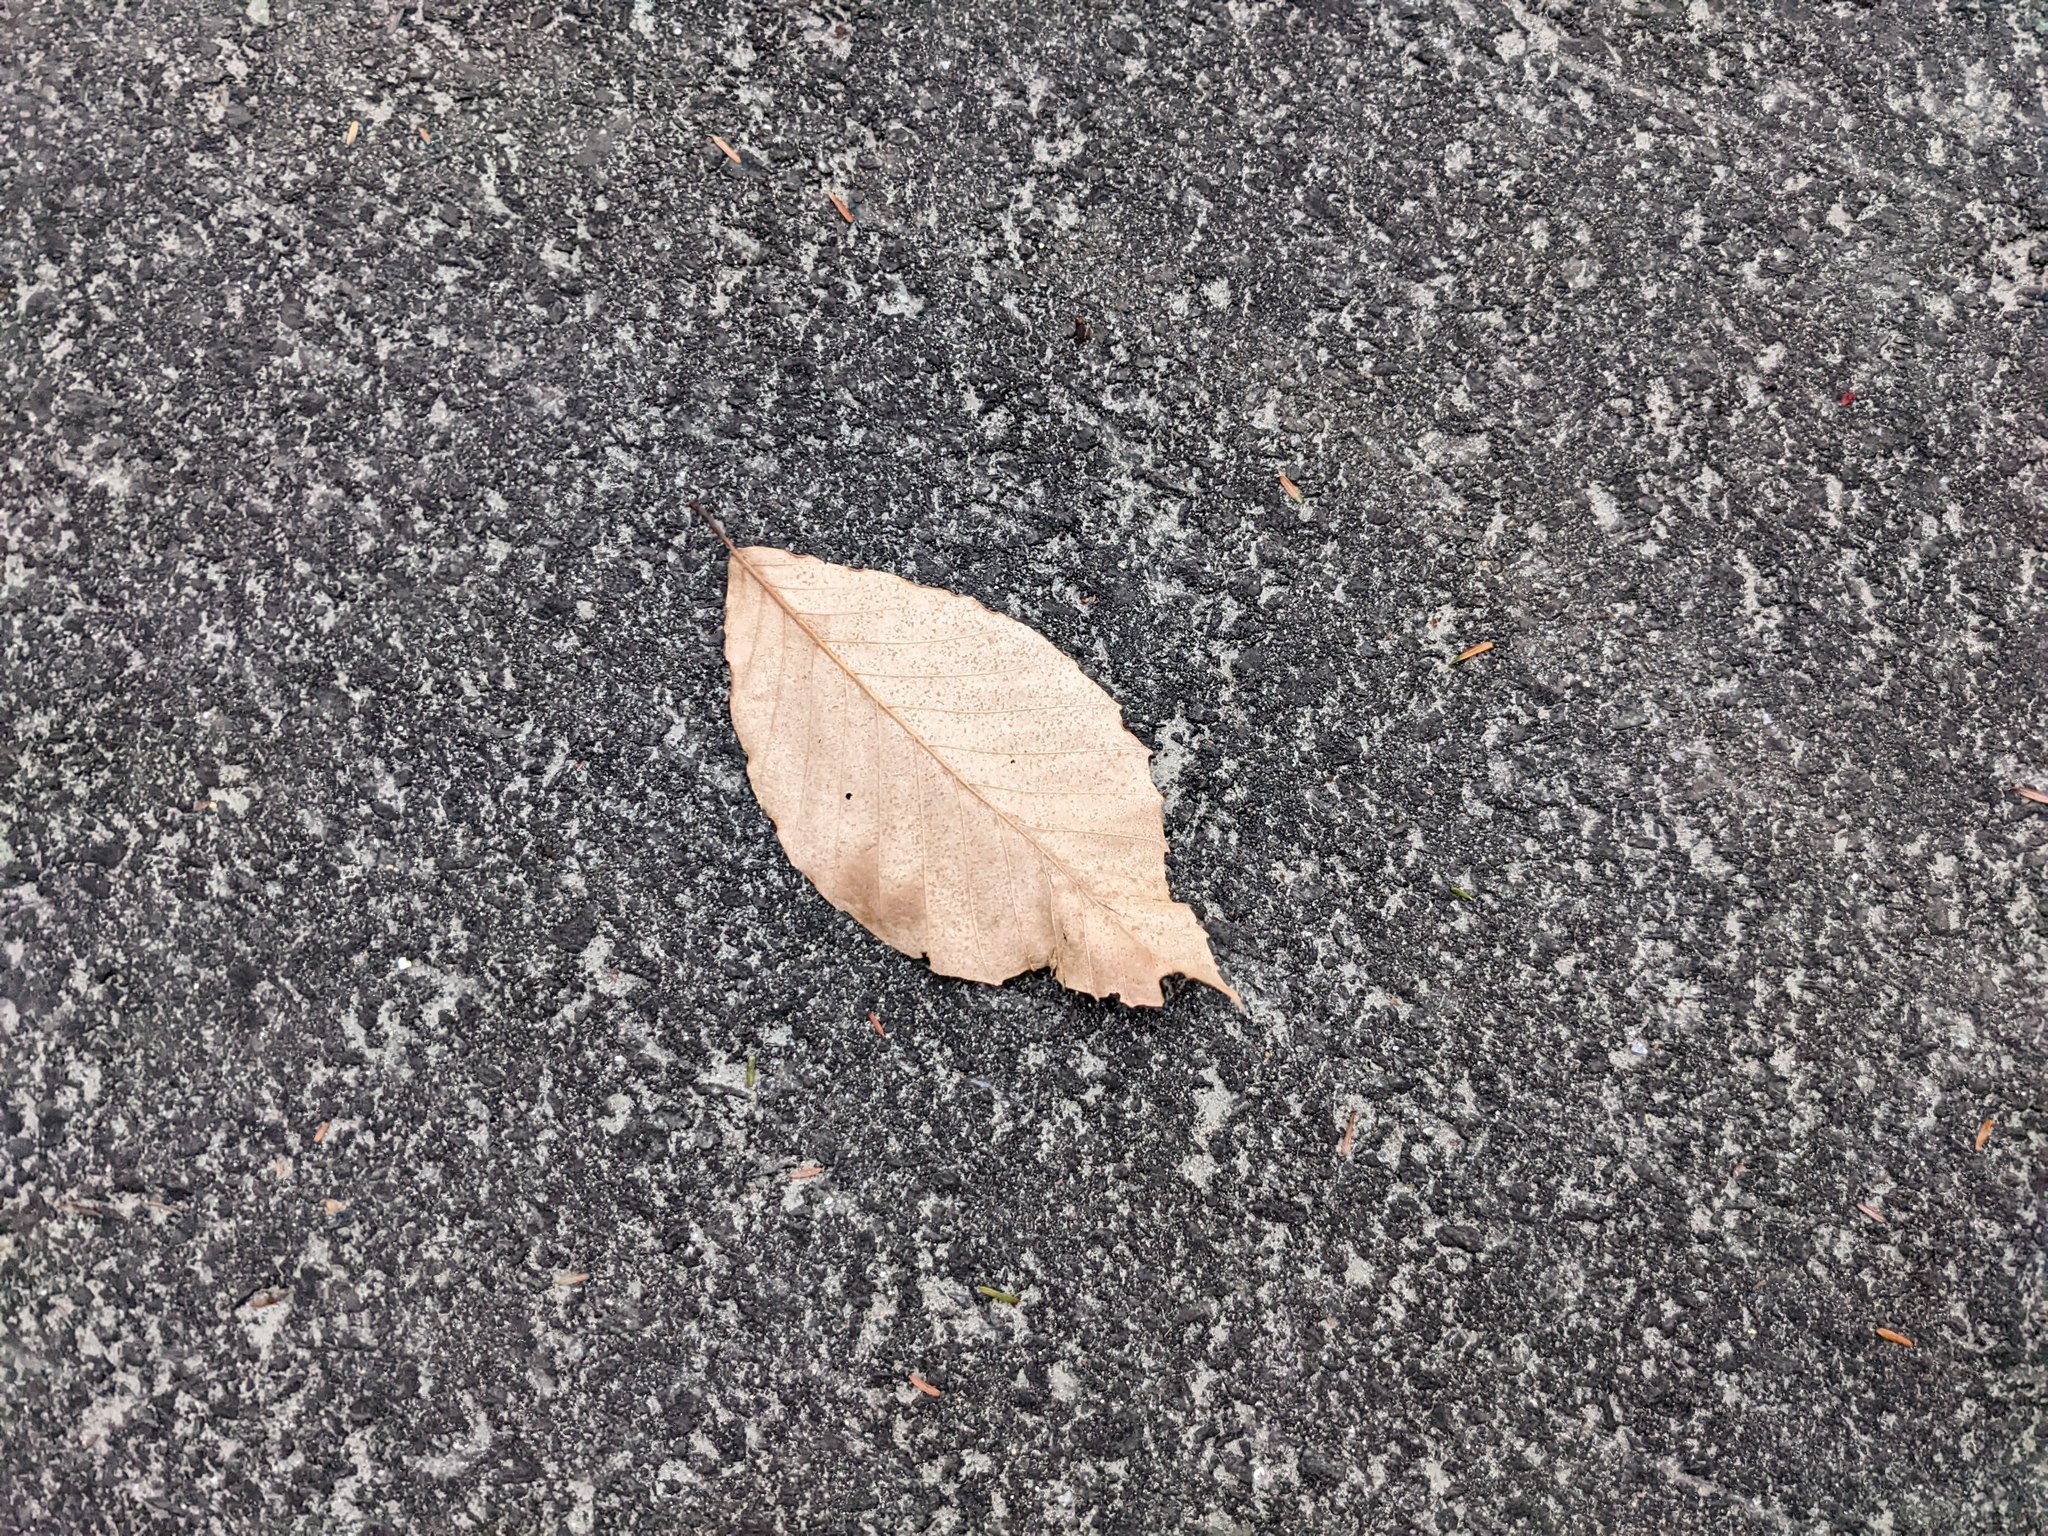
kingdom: Plantae
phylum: Tracheophyta
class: Magnoliopsida
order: Fagales
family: Fagaceae
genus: Fagus
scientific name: Fagus grandifolia
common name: American beech
